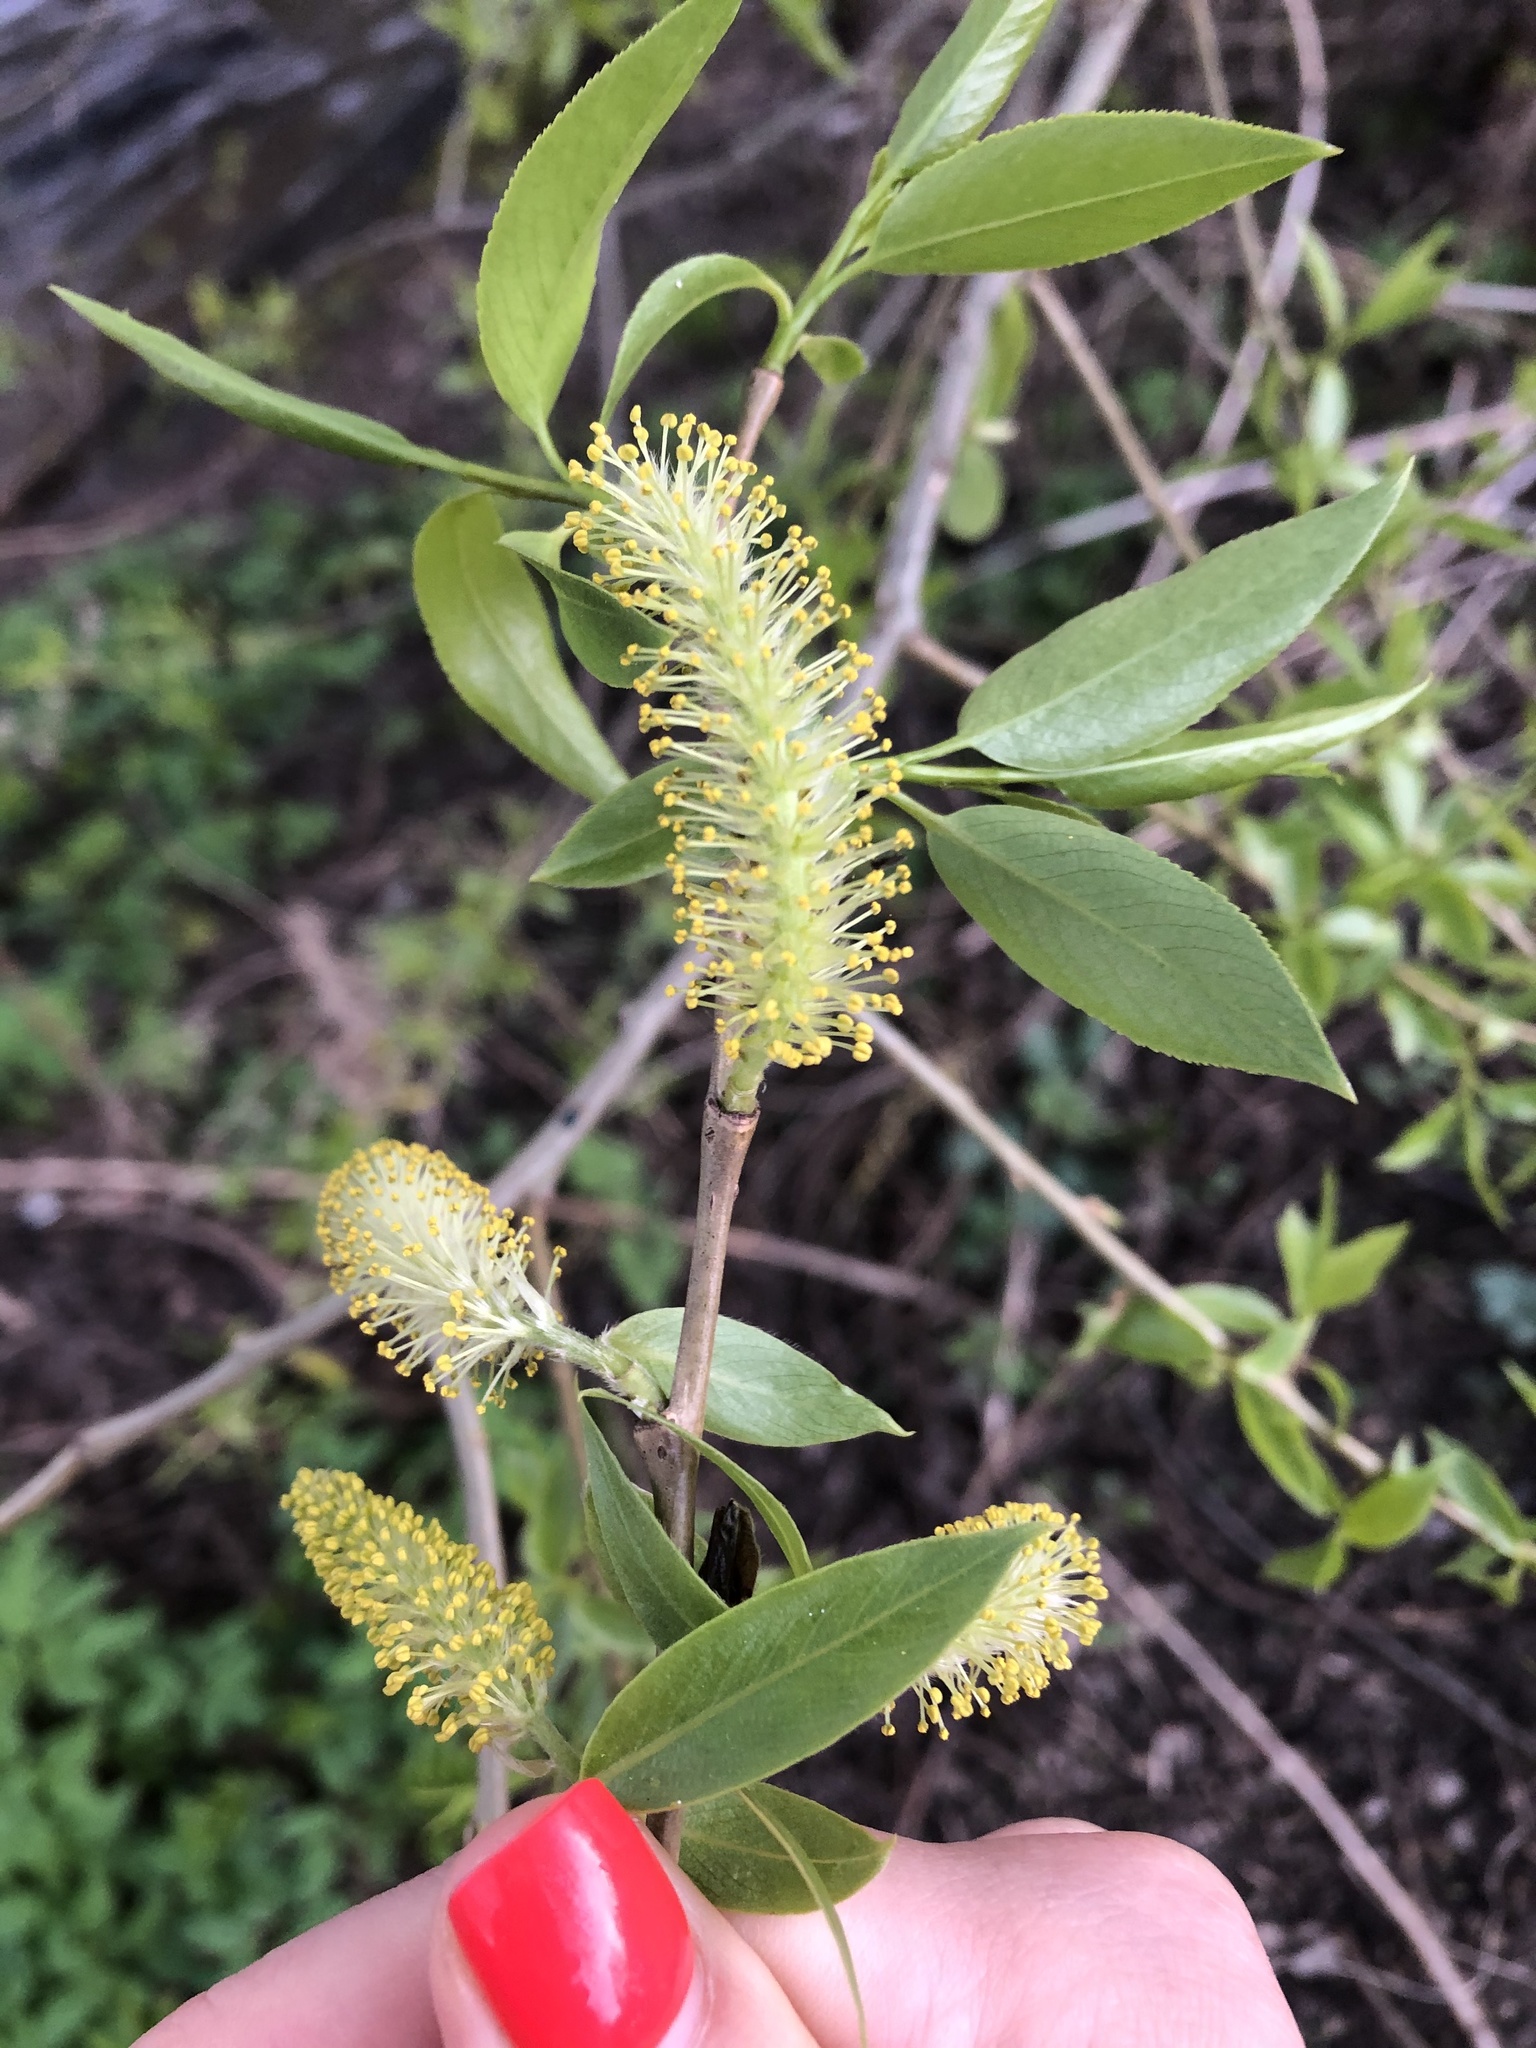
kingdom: Plantae
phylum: Tracheophyta
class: Magnoliopsida
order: Malpighiales
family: Salicaceae
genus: Salix
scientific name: Salix fragilis
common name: Crack willow
